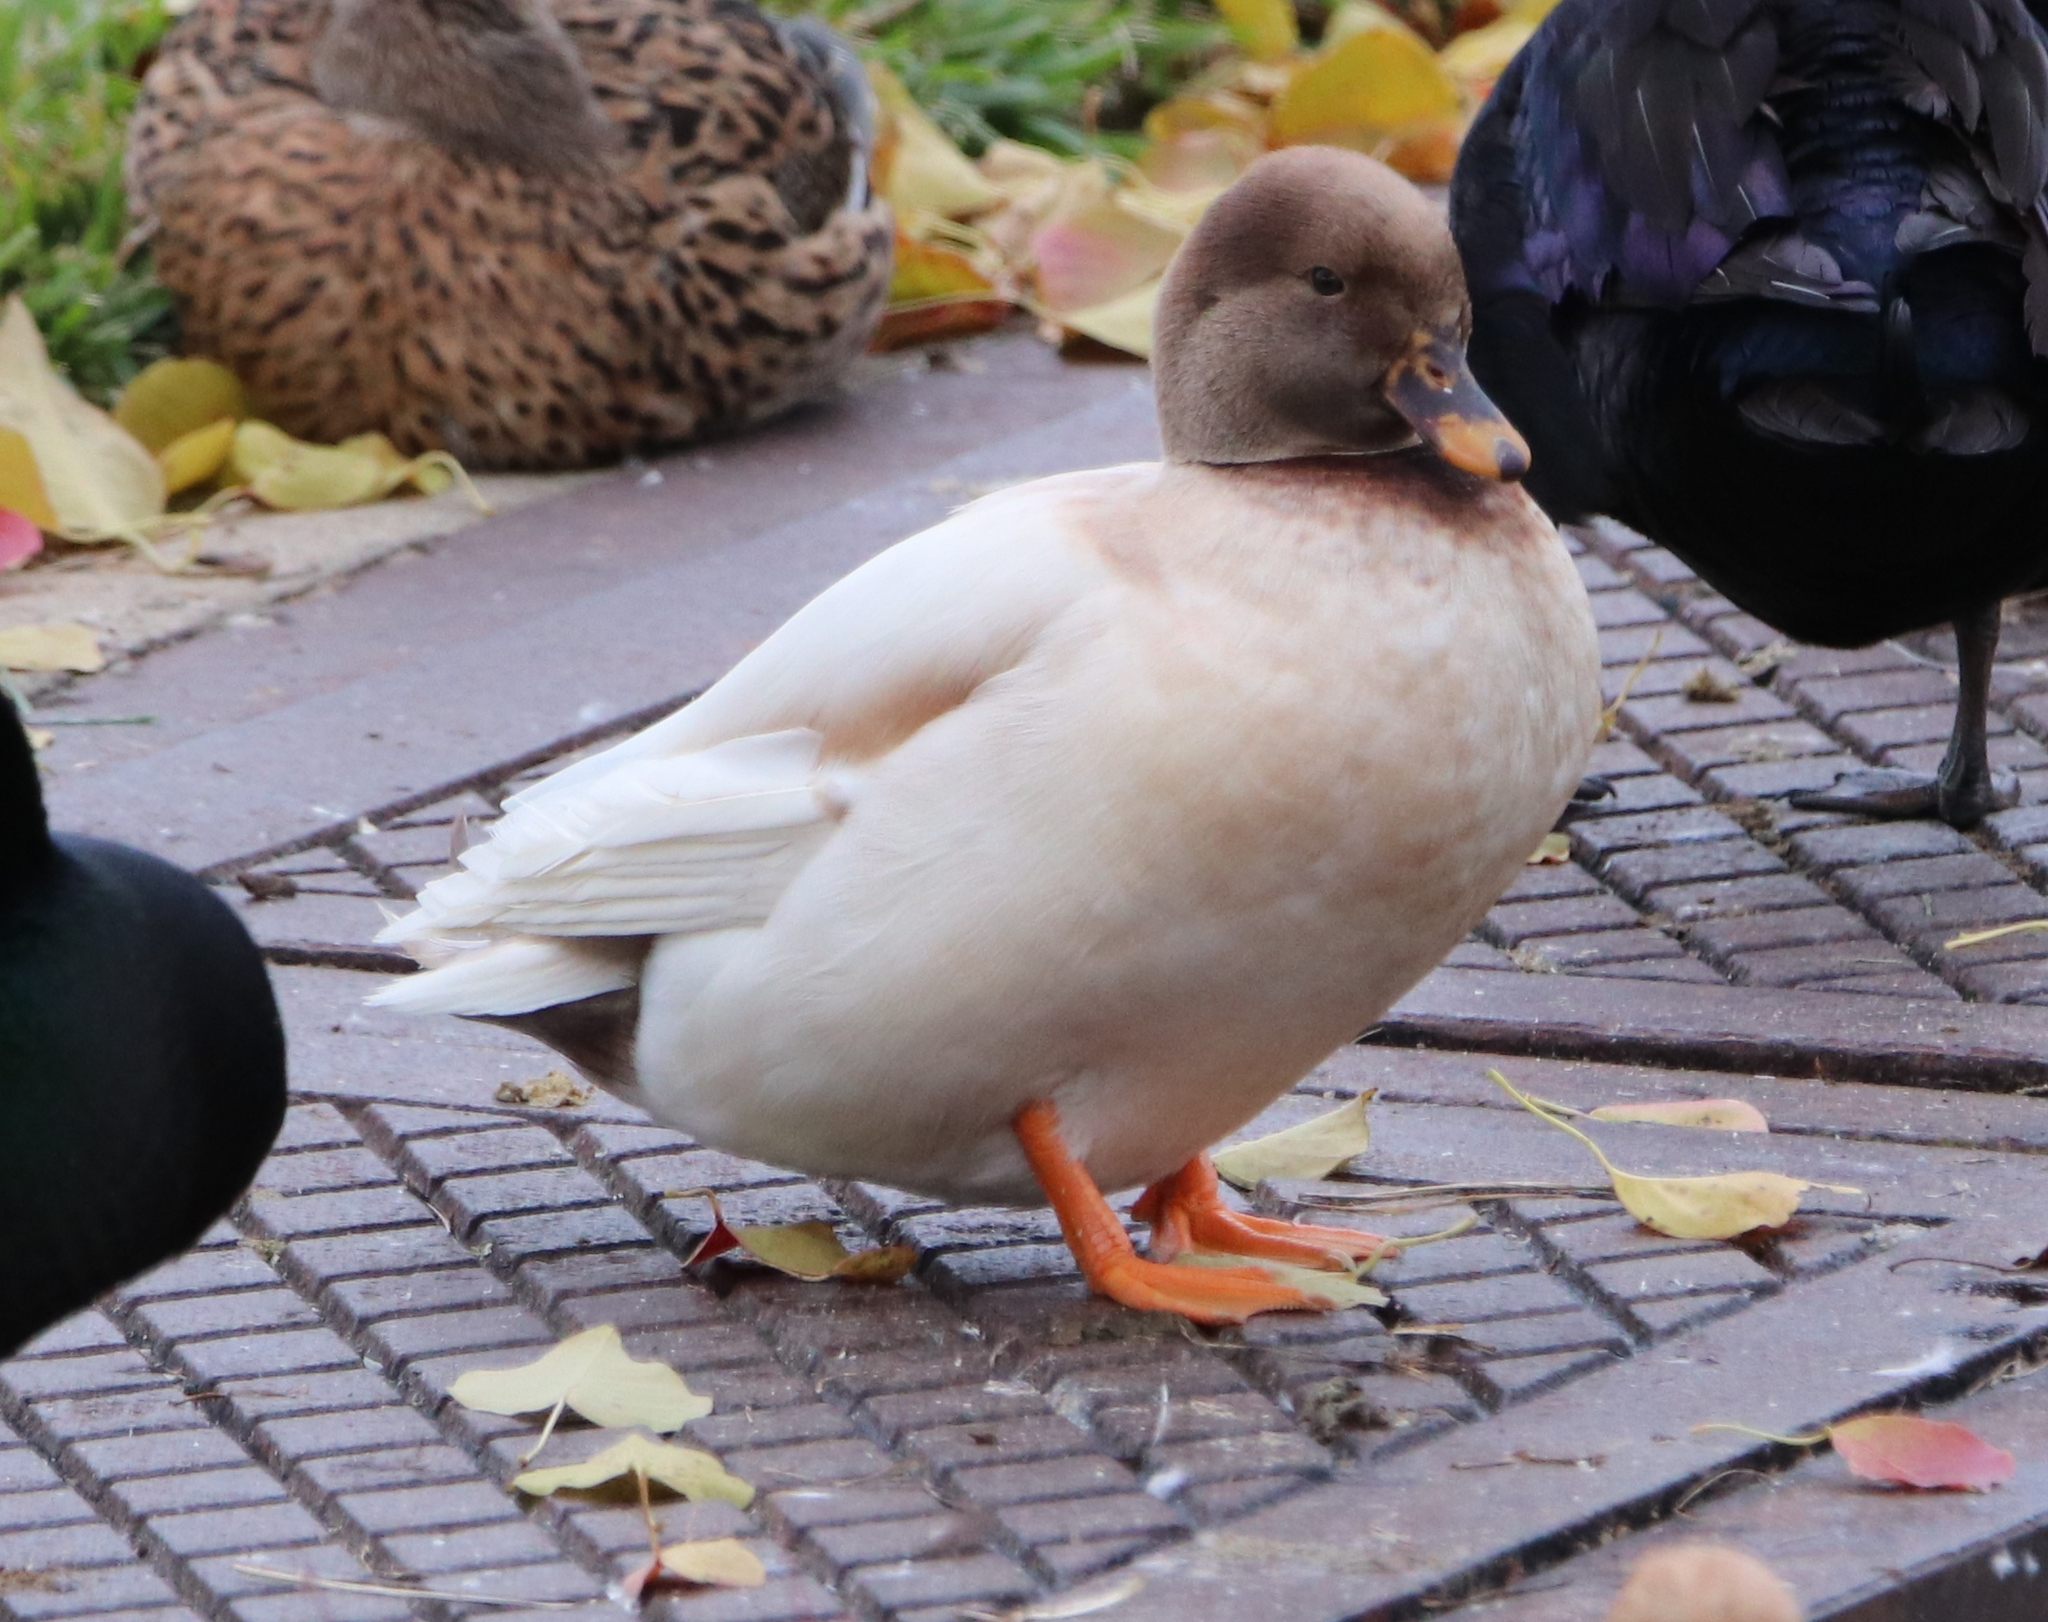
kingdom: Animalia
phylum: Chordata
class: Aves
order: Anseriformes
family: Anatidae
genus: Anas
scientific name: Anas platyrhynchos
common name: Mallard
